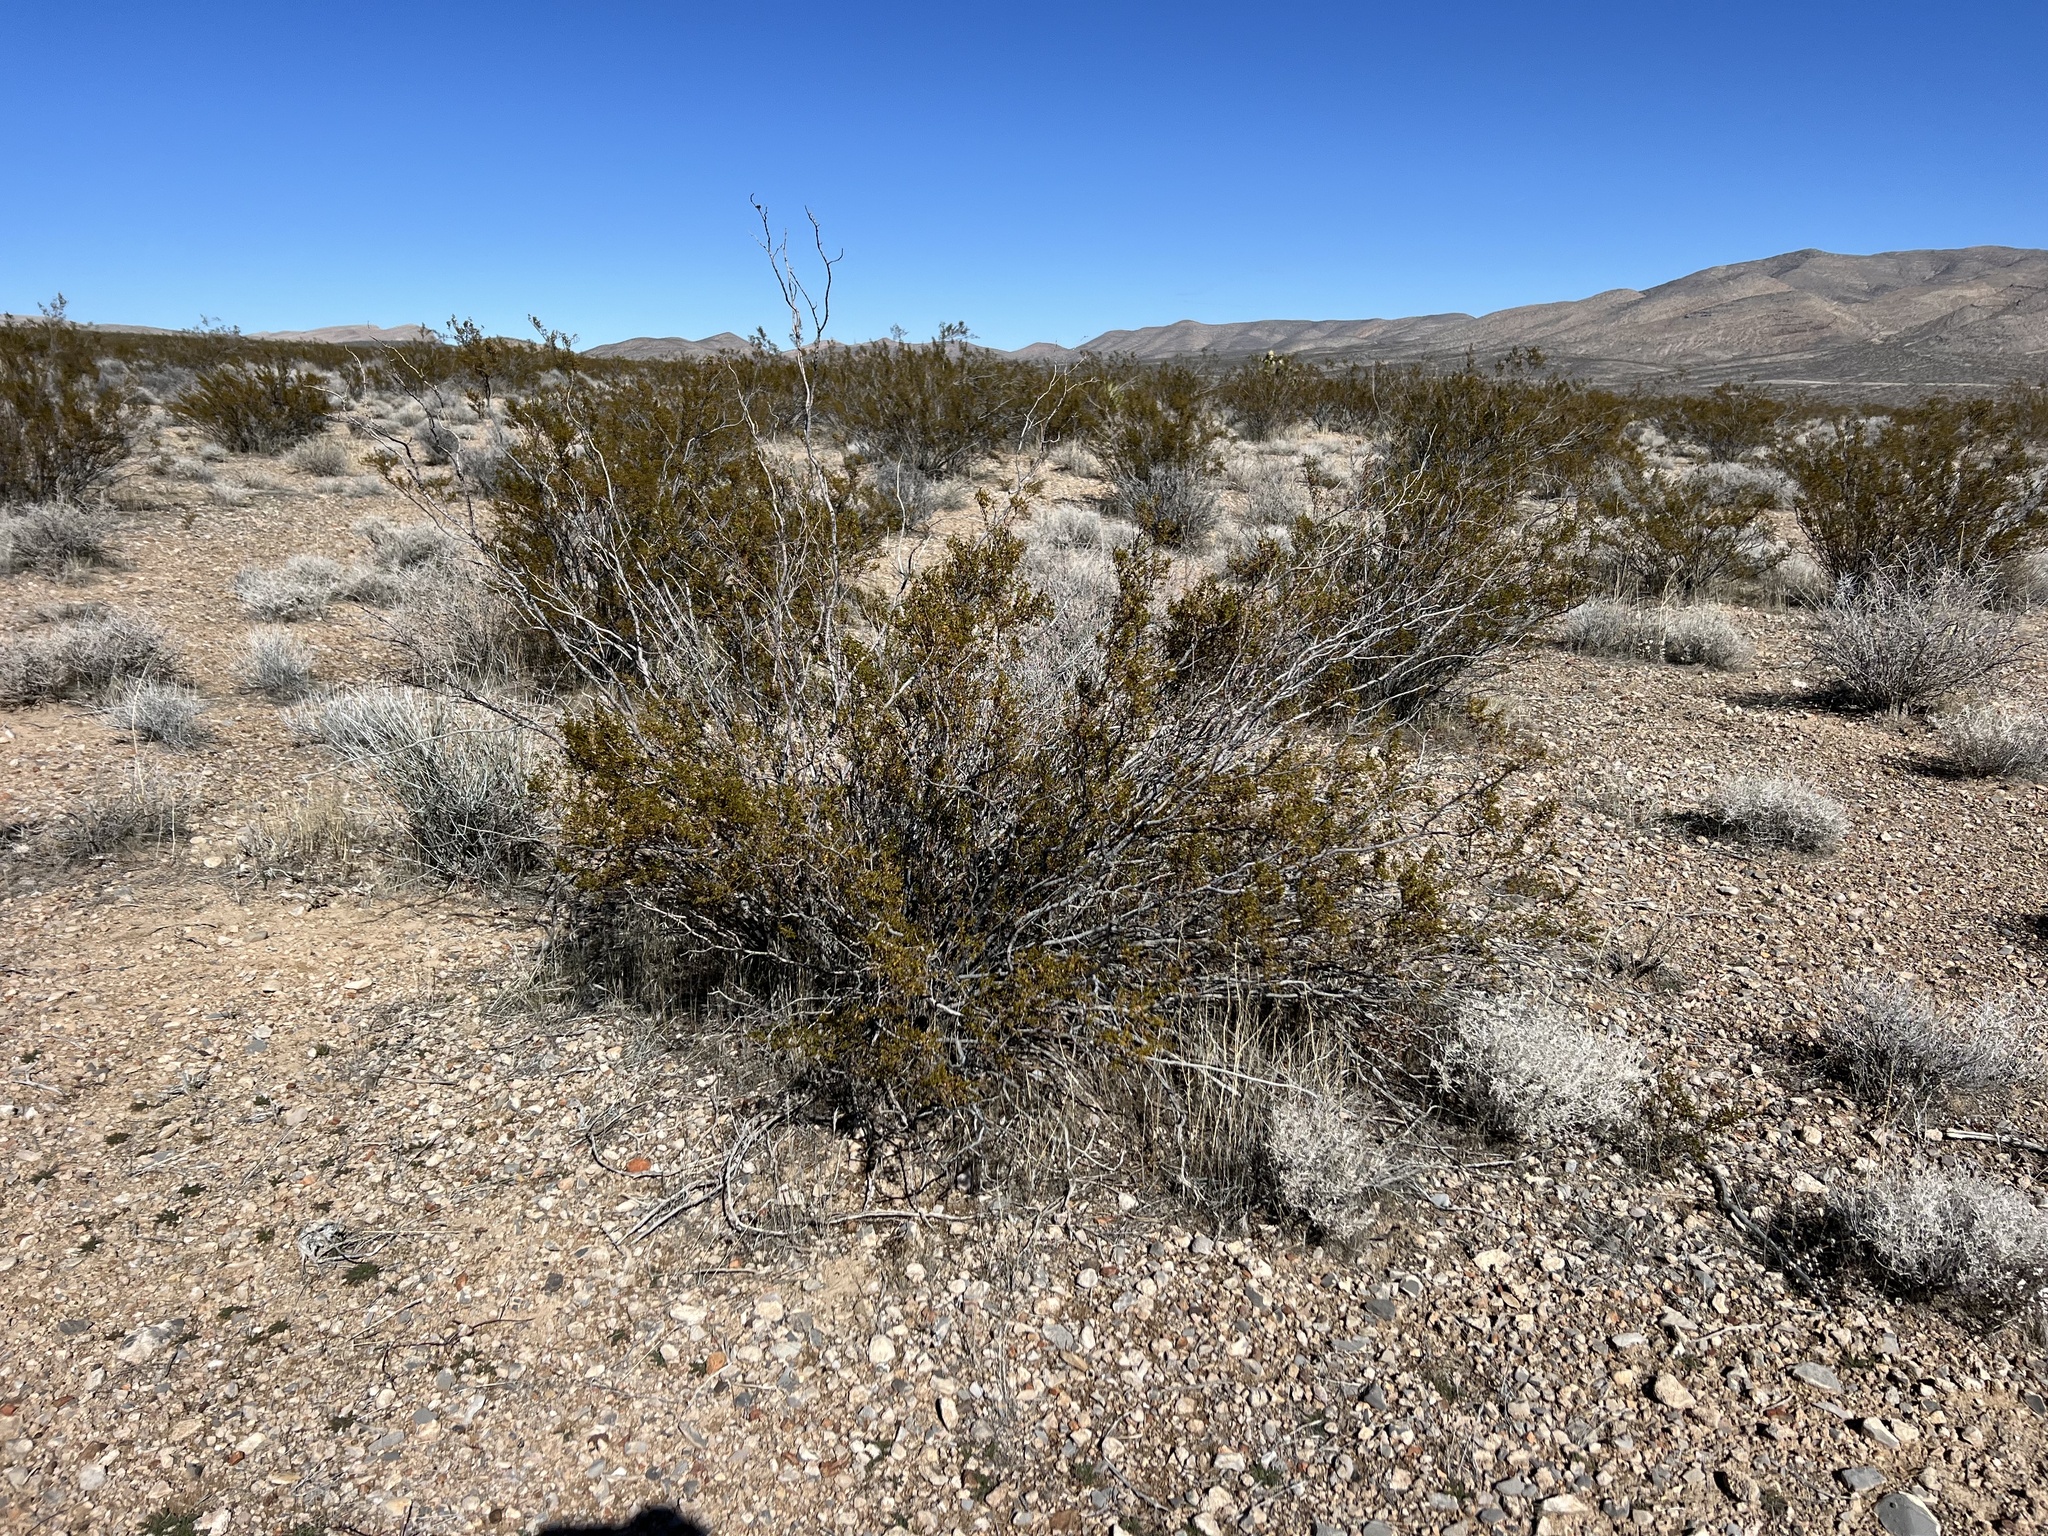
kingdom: Plantae
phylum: Tracheophyta
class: Magnoliopsida
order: Zygophyllales
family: Zygophyllaceae
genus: Larrea
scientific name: Larrea tridentata
